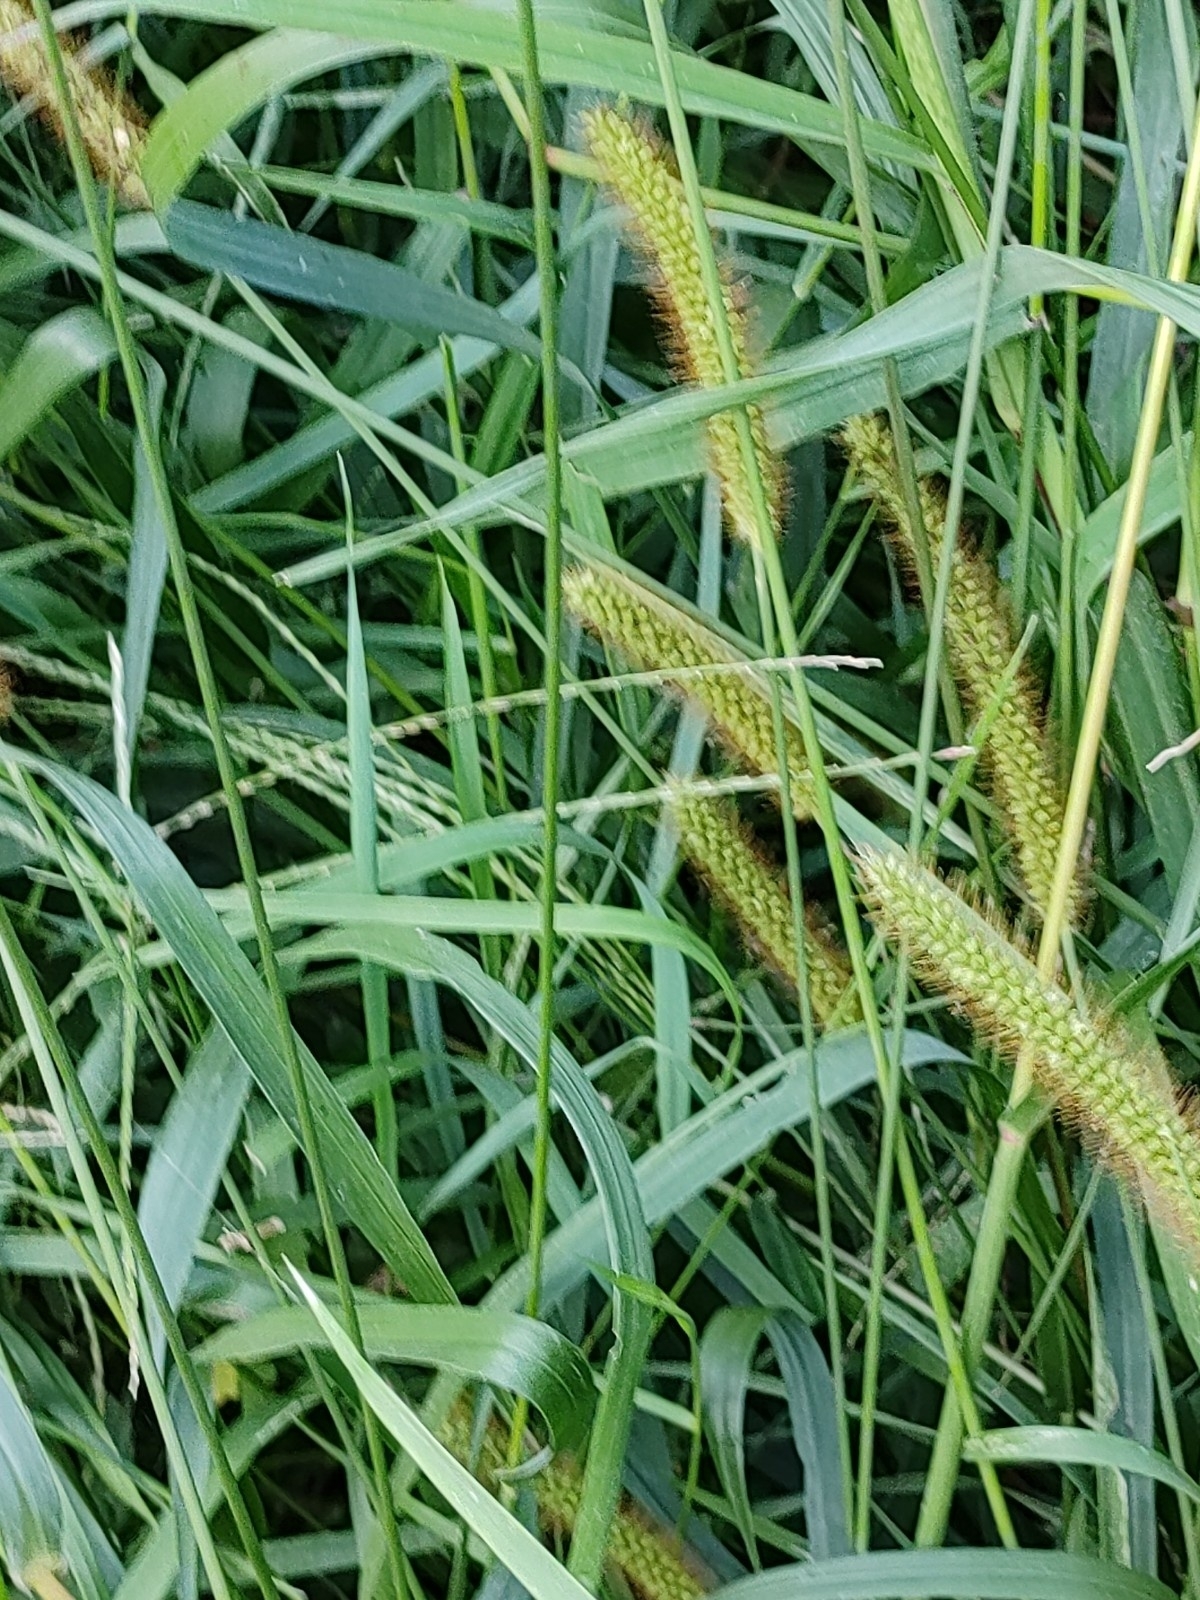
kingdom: Plantae
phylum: Tracheophyta
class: Liliopsida
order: Poales
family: Poaceae
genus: Setaria
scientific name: Setaria pumila
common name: Yellow bristle-grass
